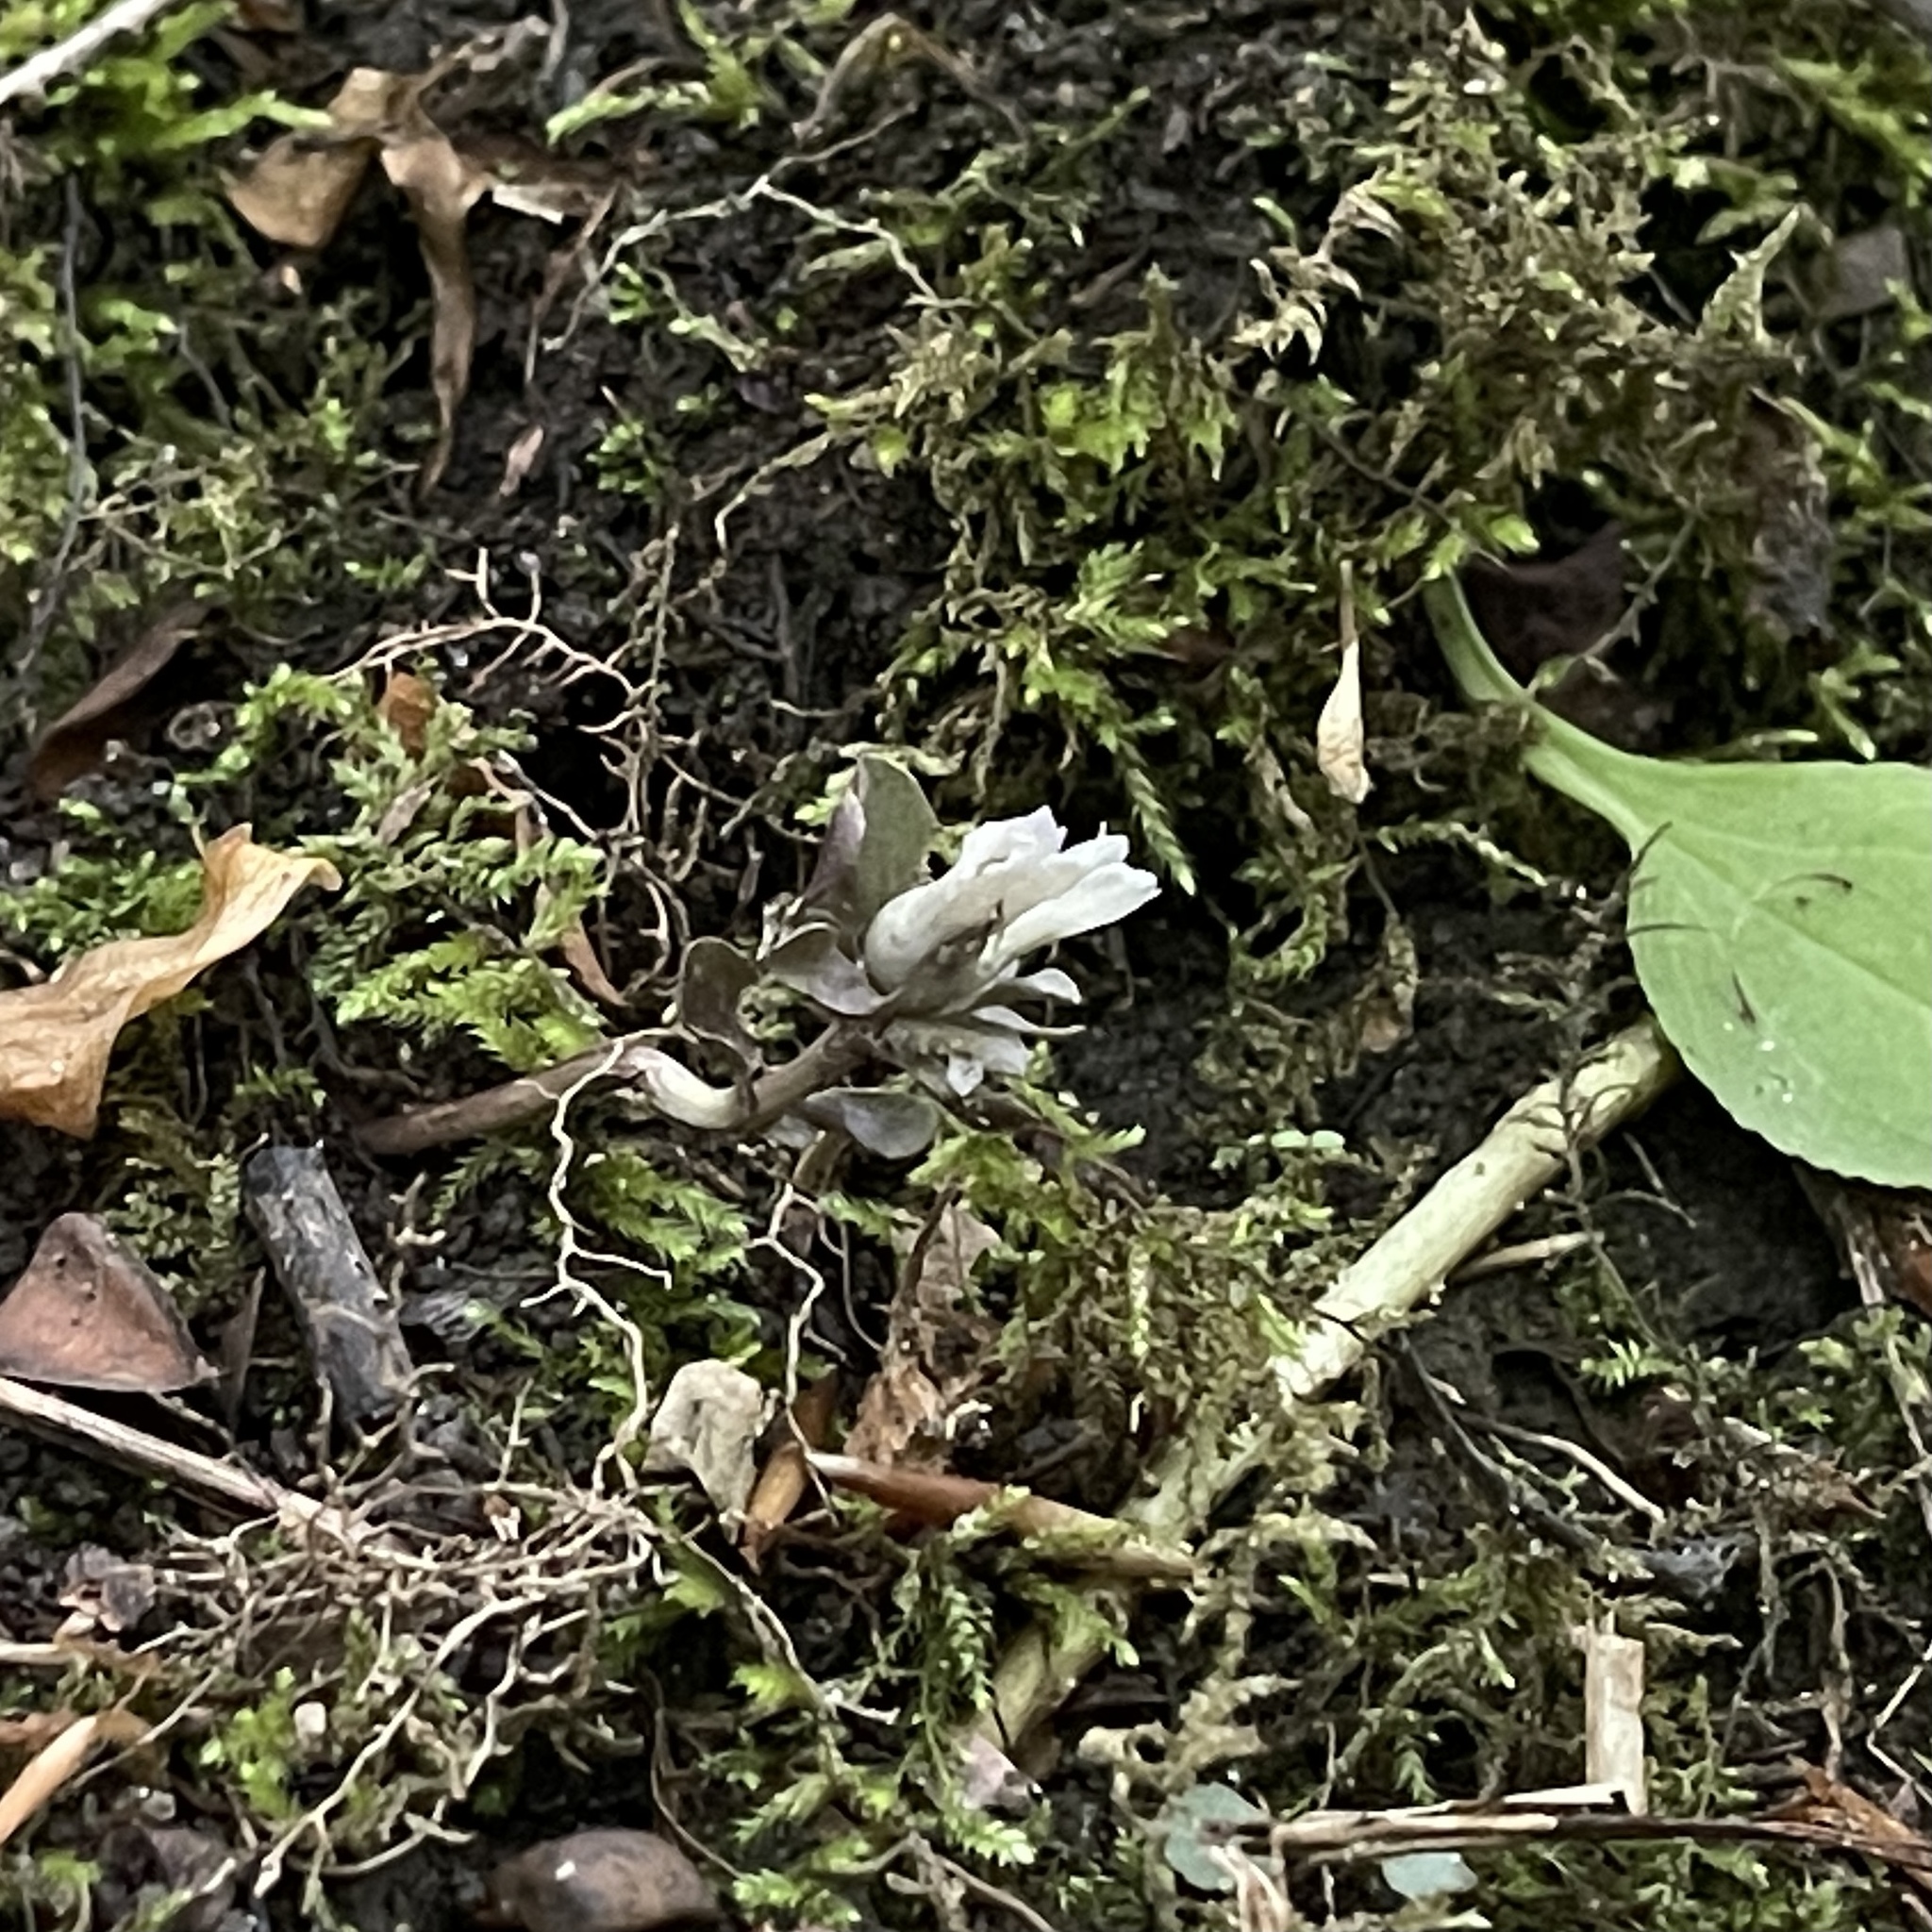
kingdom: Plantae
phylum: Tracheophyta
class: Magnoliopsida
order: Gentianales
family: Gentianaceae
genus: Obolaria
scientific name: Obolaria virginica
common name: Pennywort
